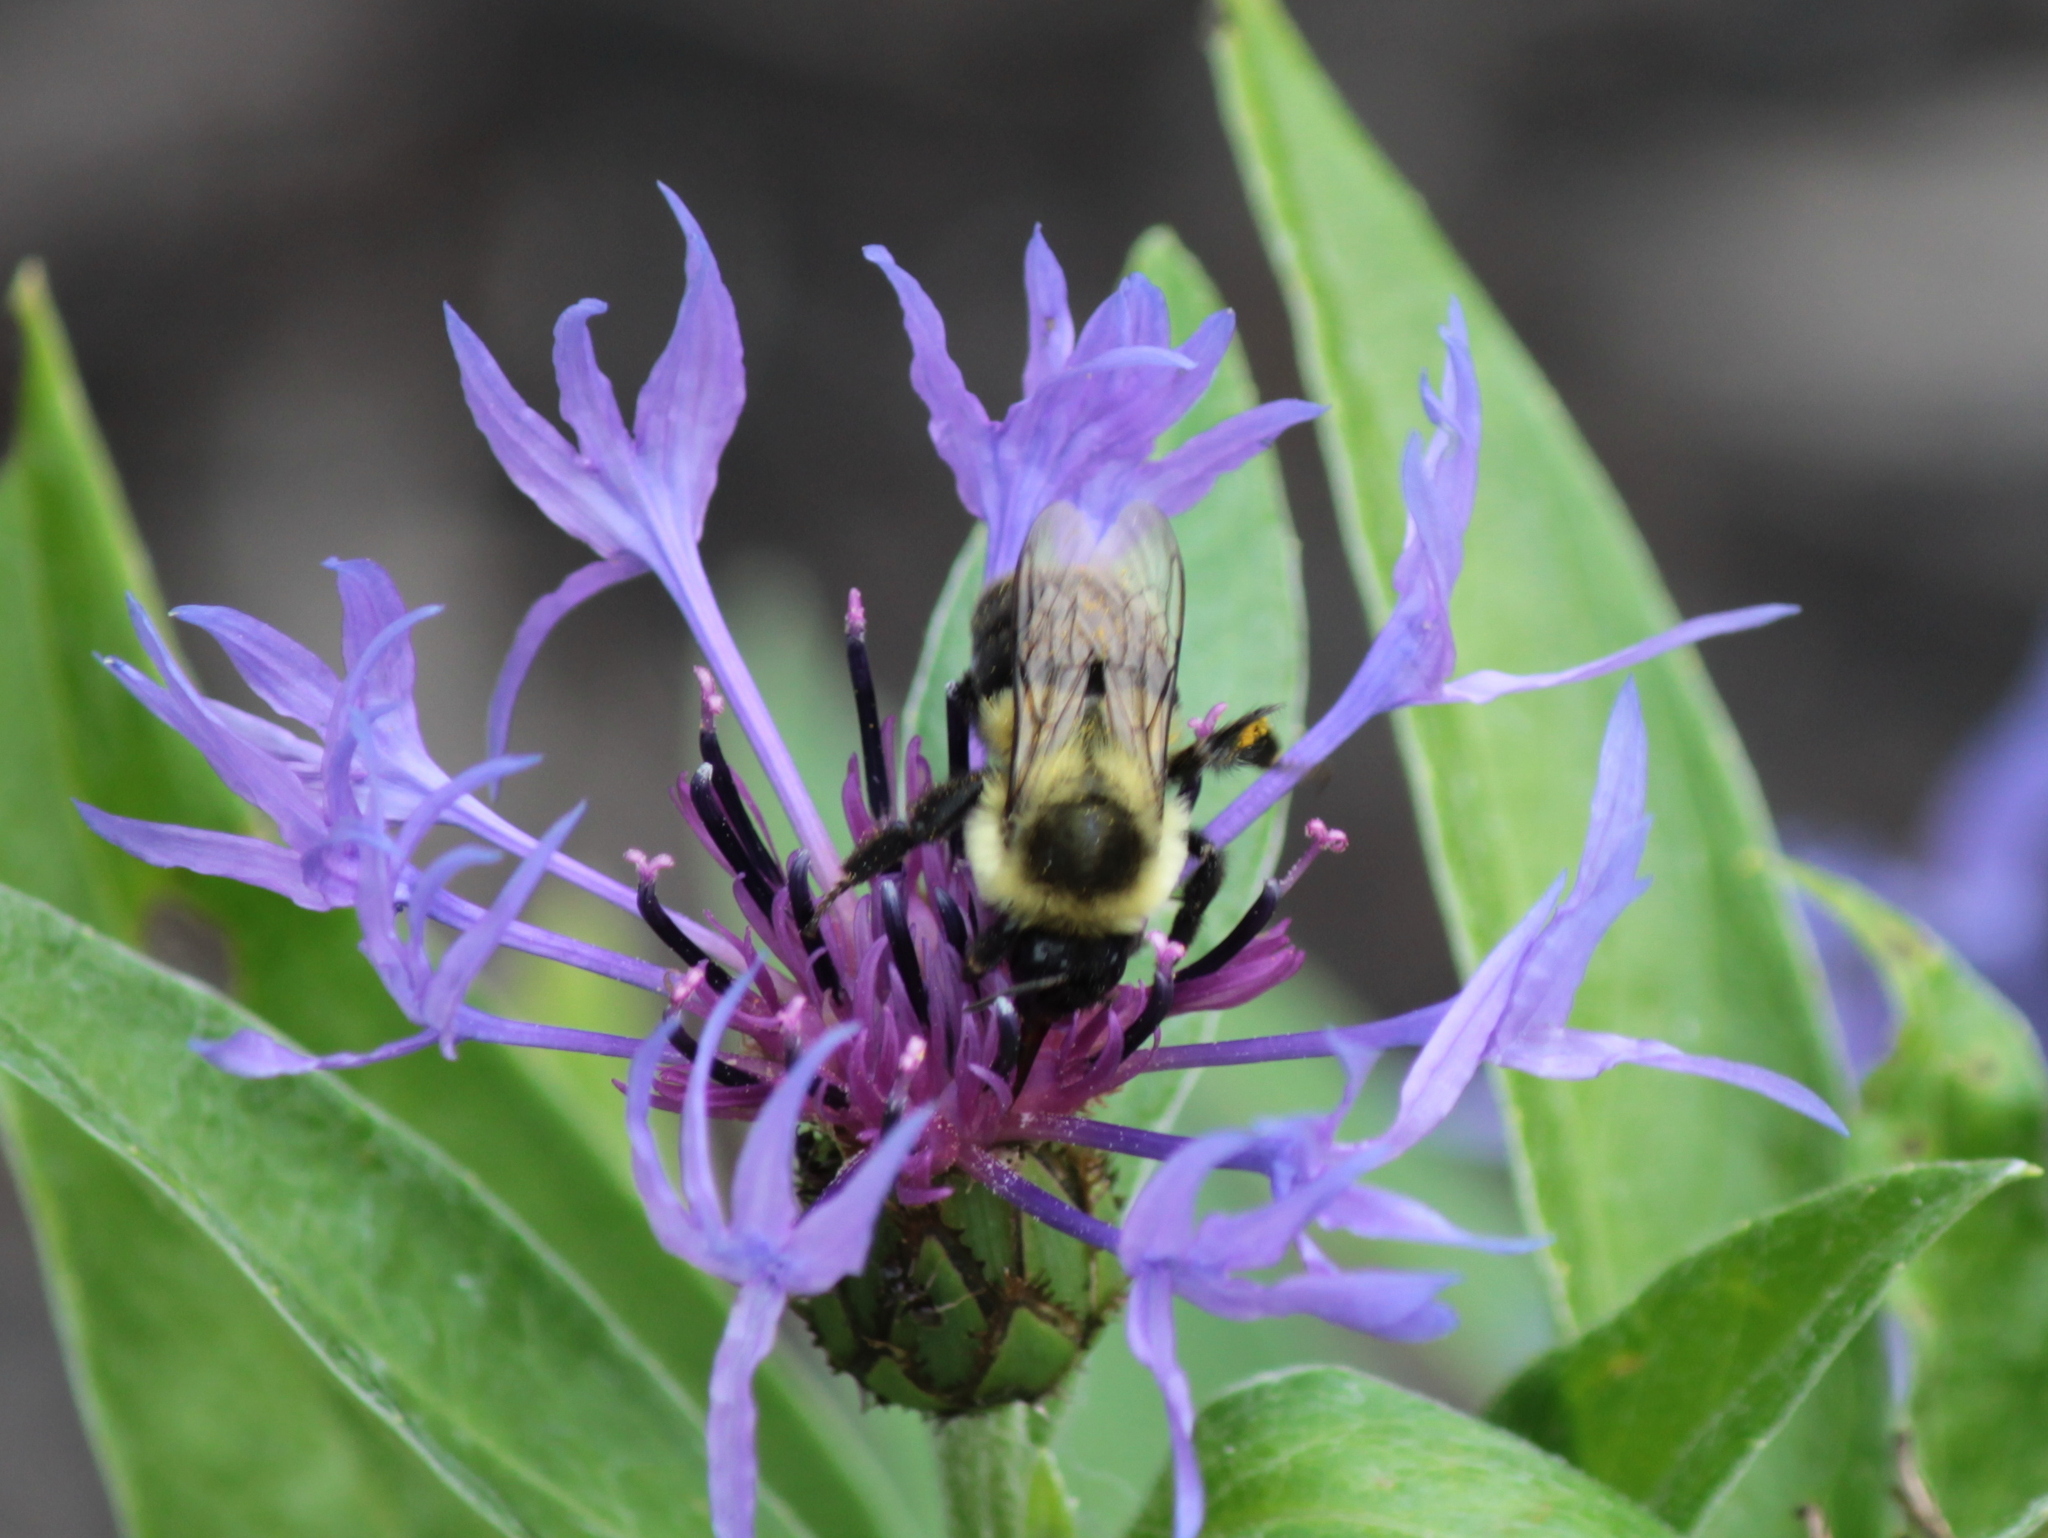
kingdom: Animalia
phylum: Arthropoda
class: Insecta
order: Hymenoptera
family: Apidae
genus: Bombus
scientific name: Bombus impatiens
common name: Common eastern bumble bee
